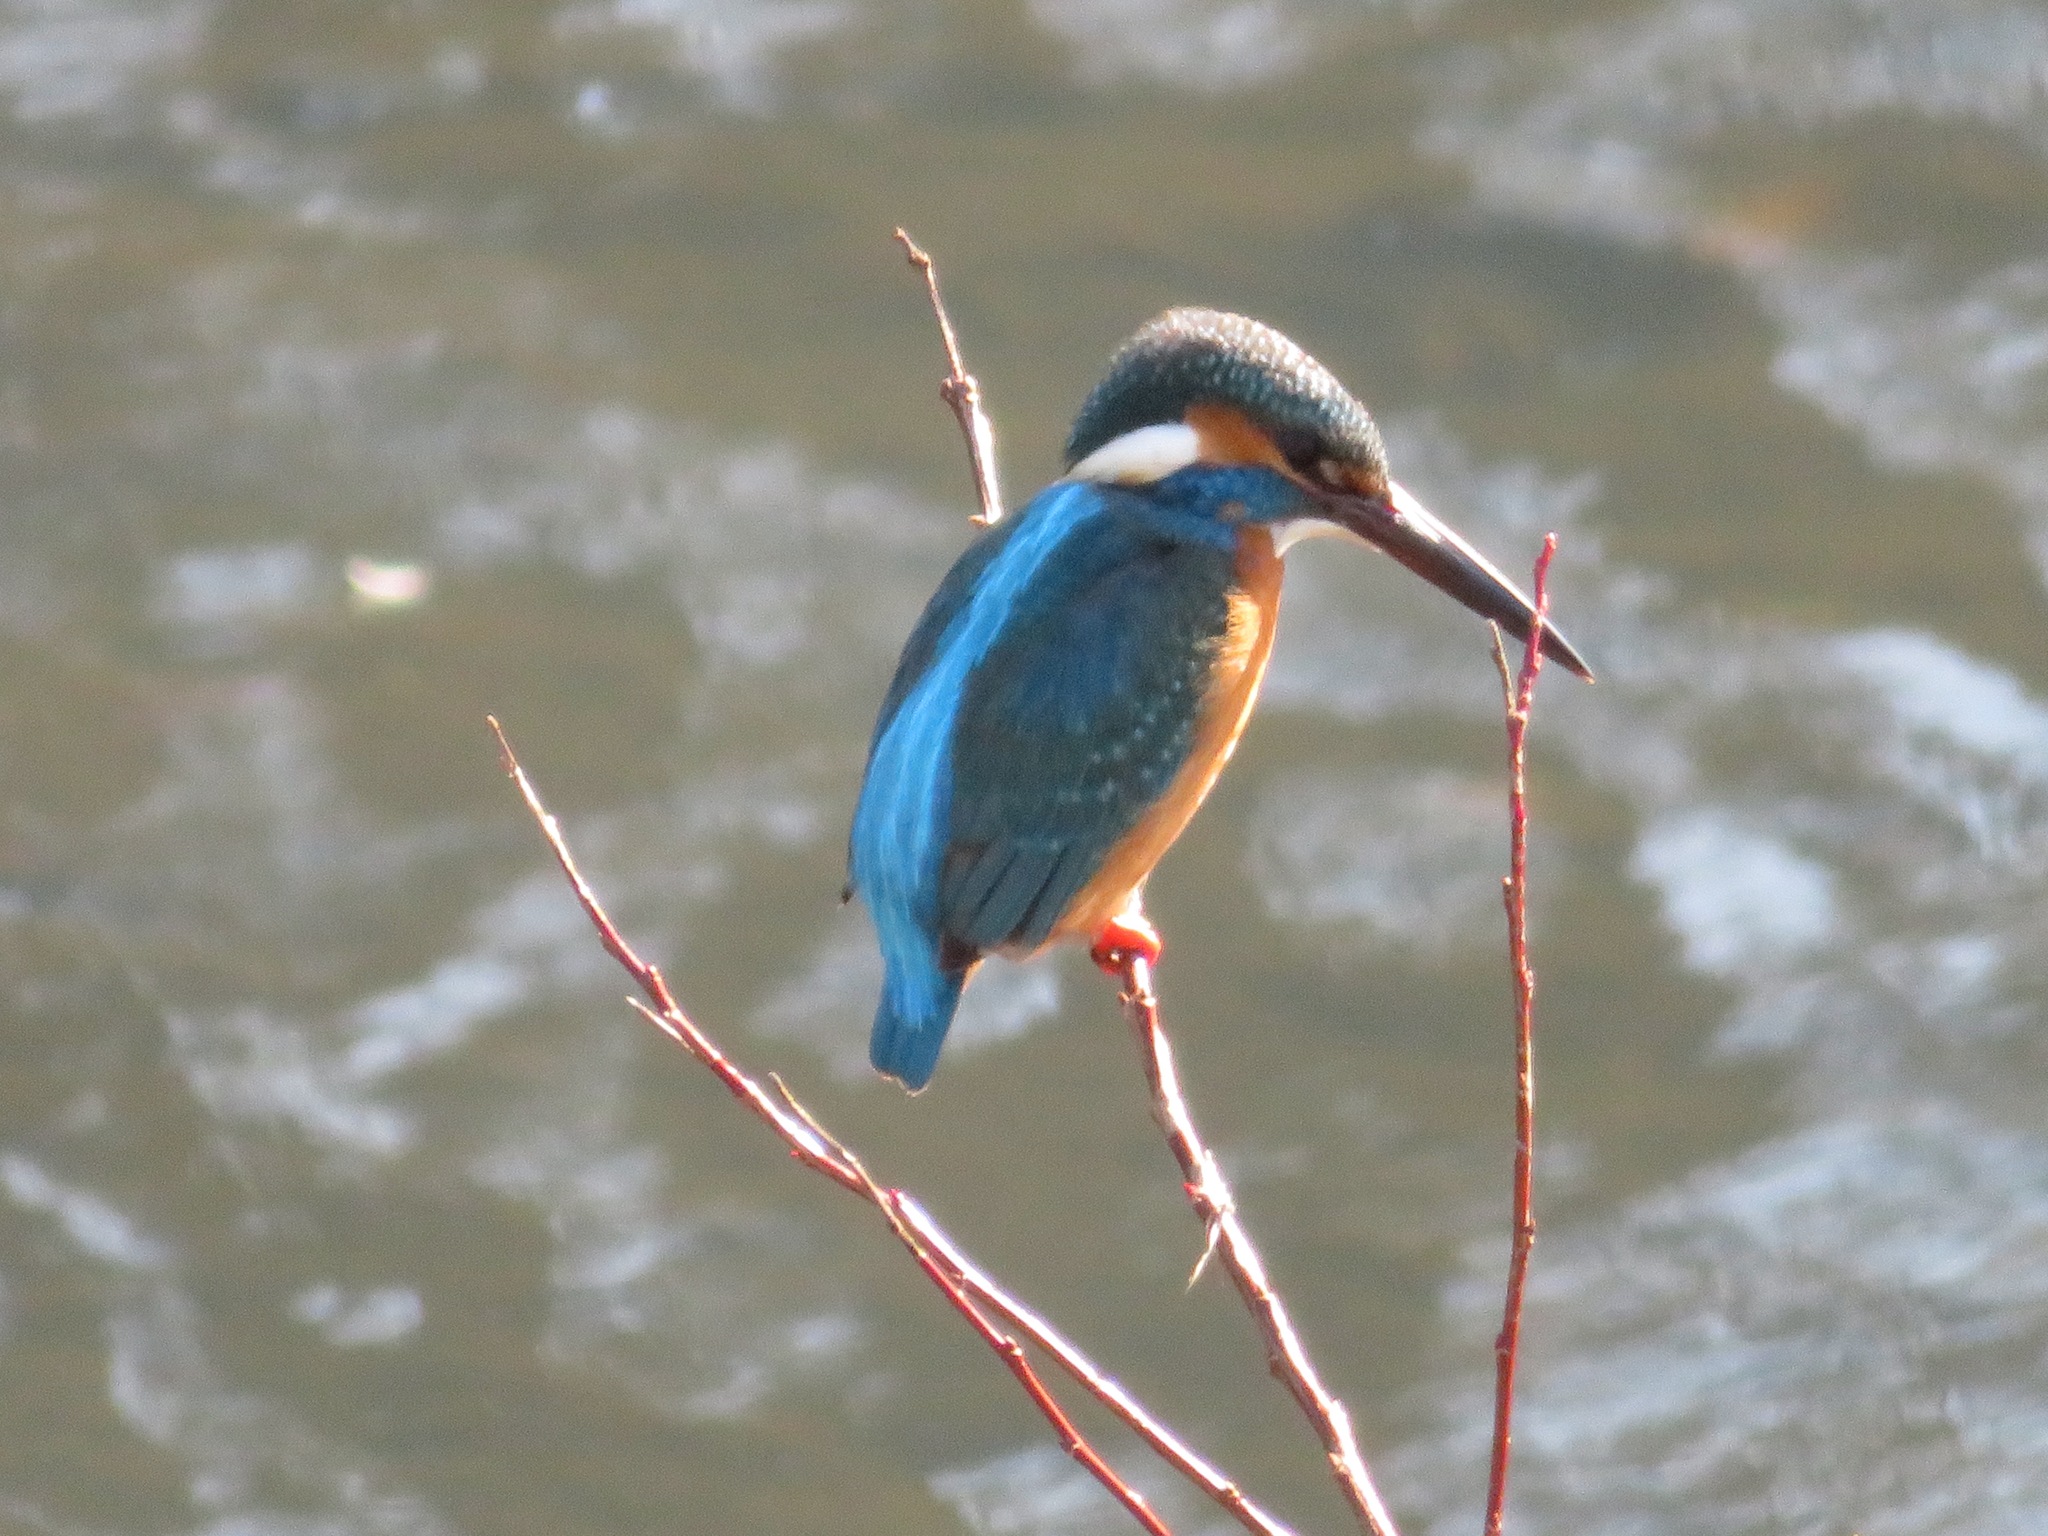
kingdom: Animalia
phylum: Chordata
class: Aves
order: Coraciiformes
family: Alcedinidae
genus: Alcedo
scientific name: Alcedo atthis
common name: Common kingfisher
